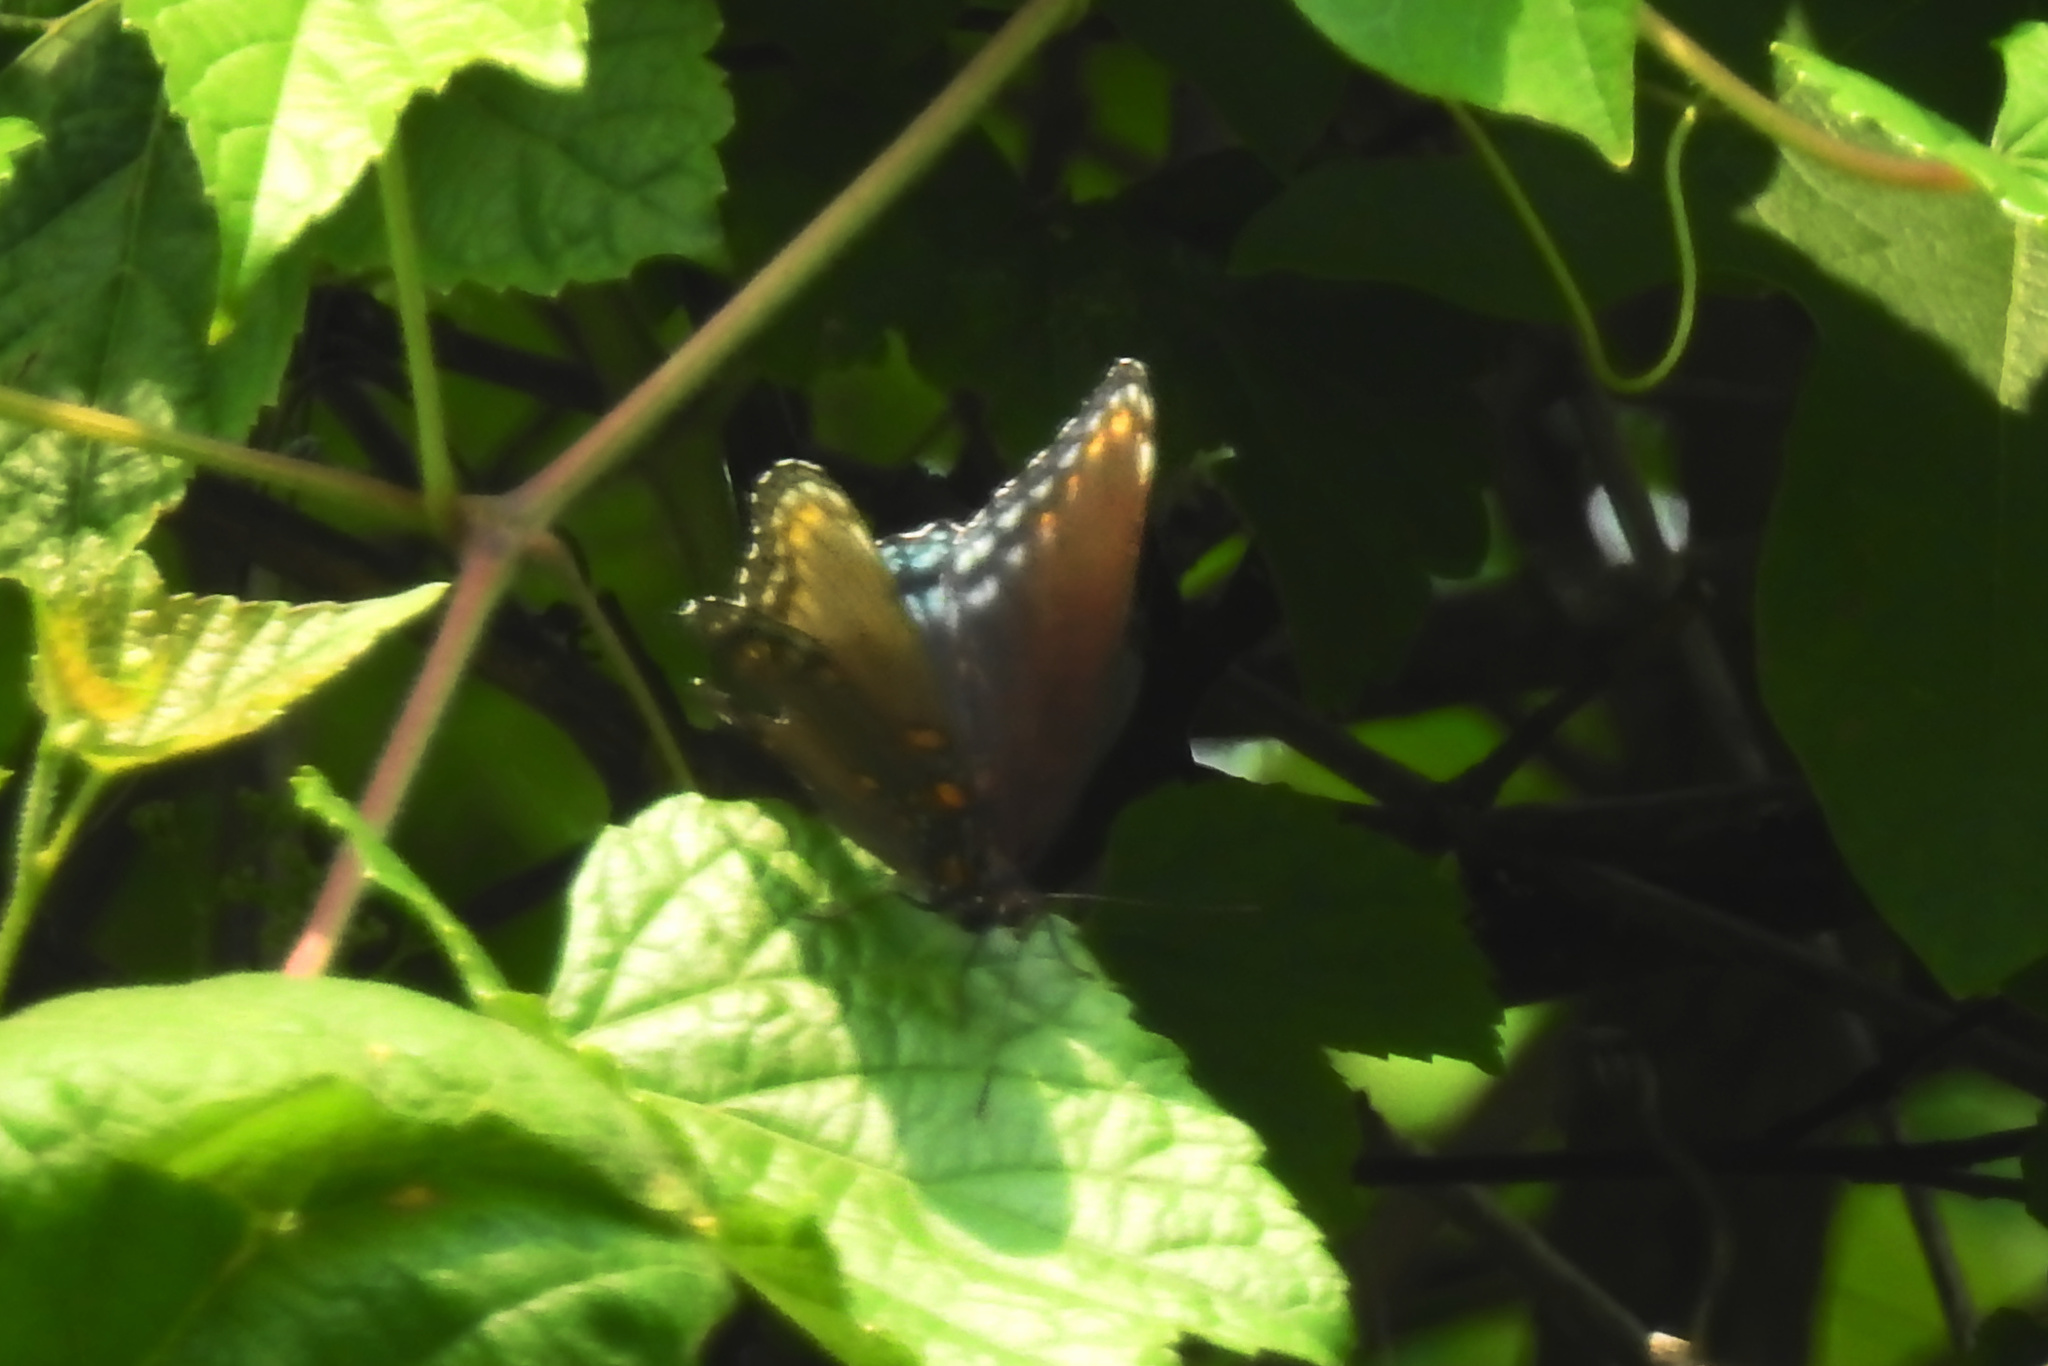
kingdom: Animalia
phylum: Arthropoda
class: Insecta
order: Lepidoptera
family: Nymphalidae
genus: Limenitis
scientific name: Limenitis astyanax
